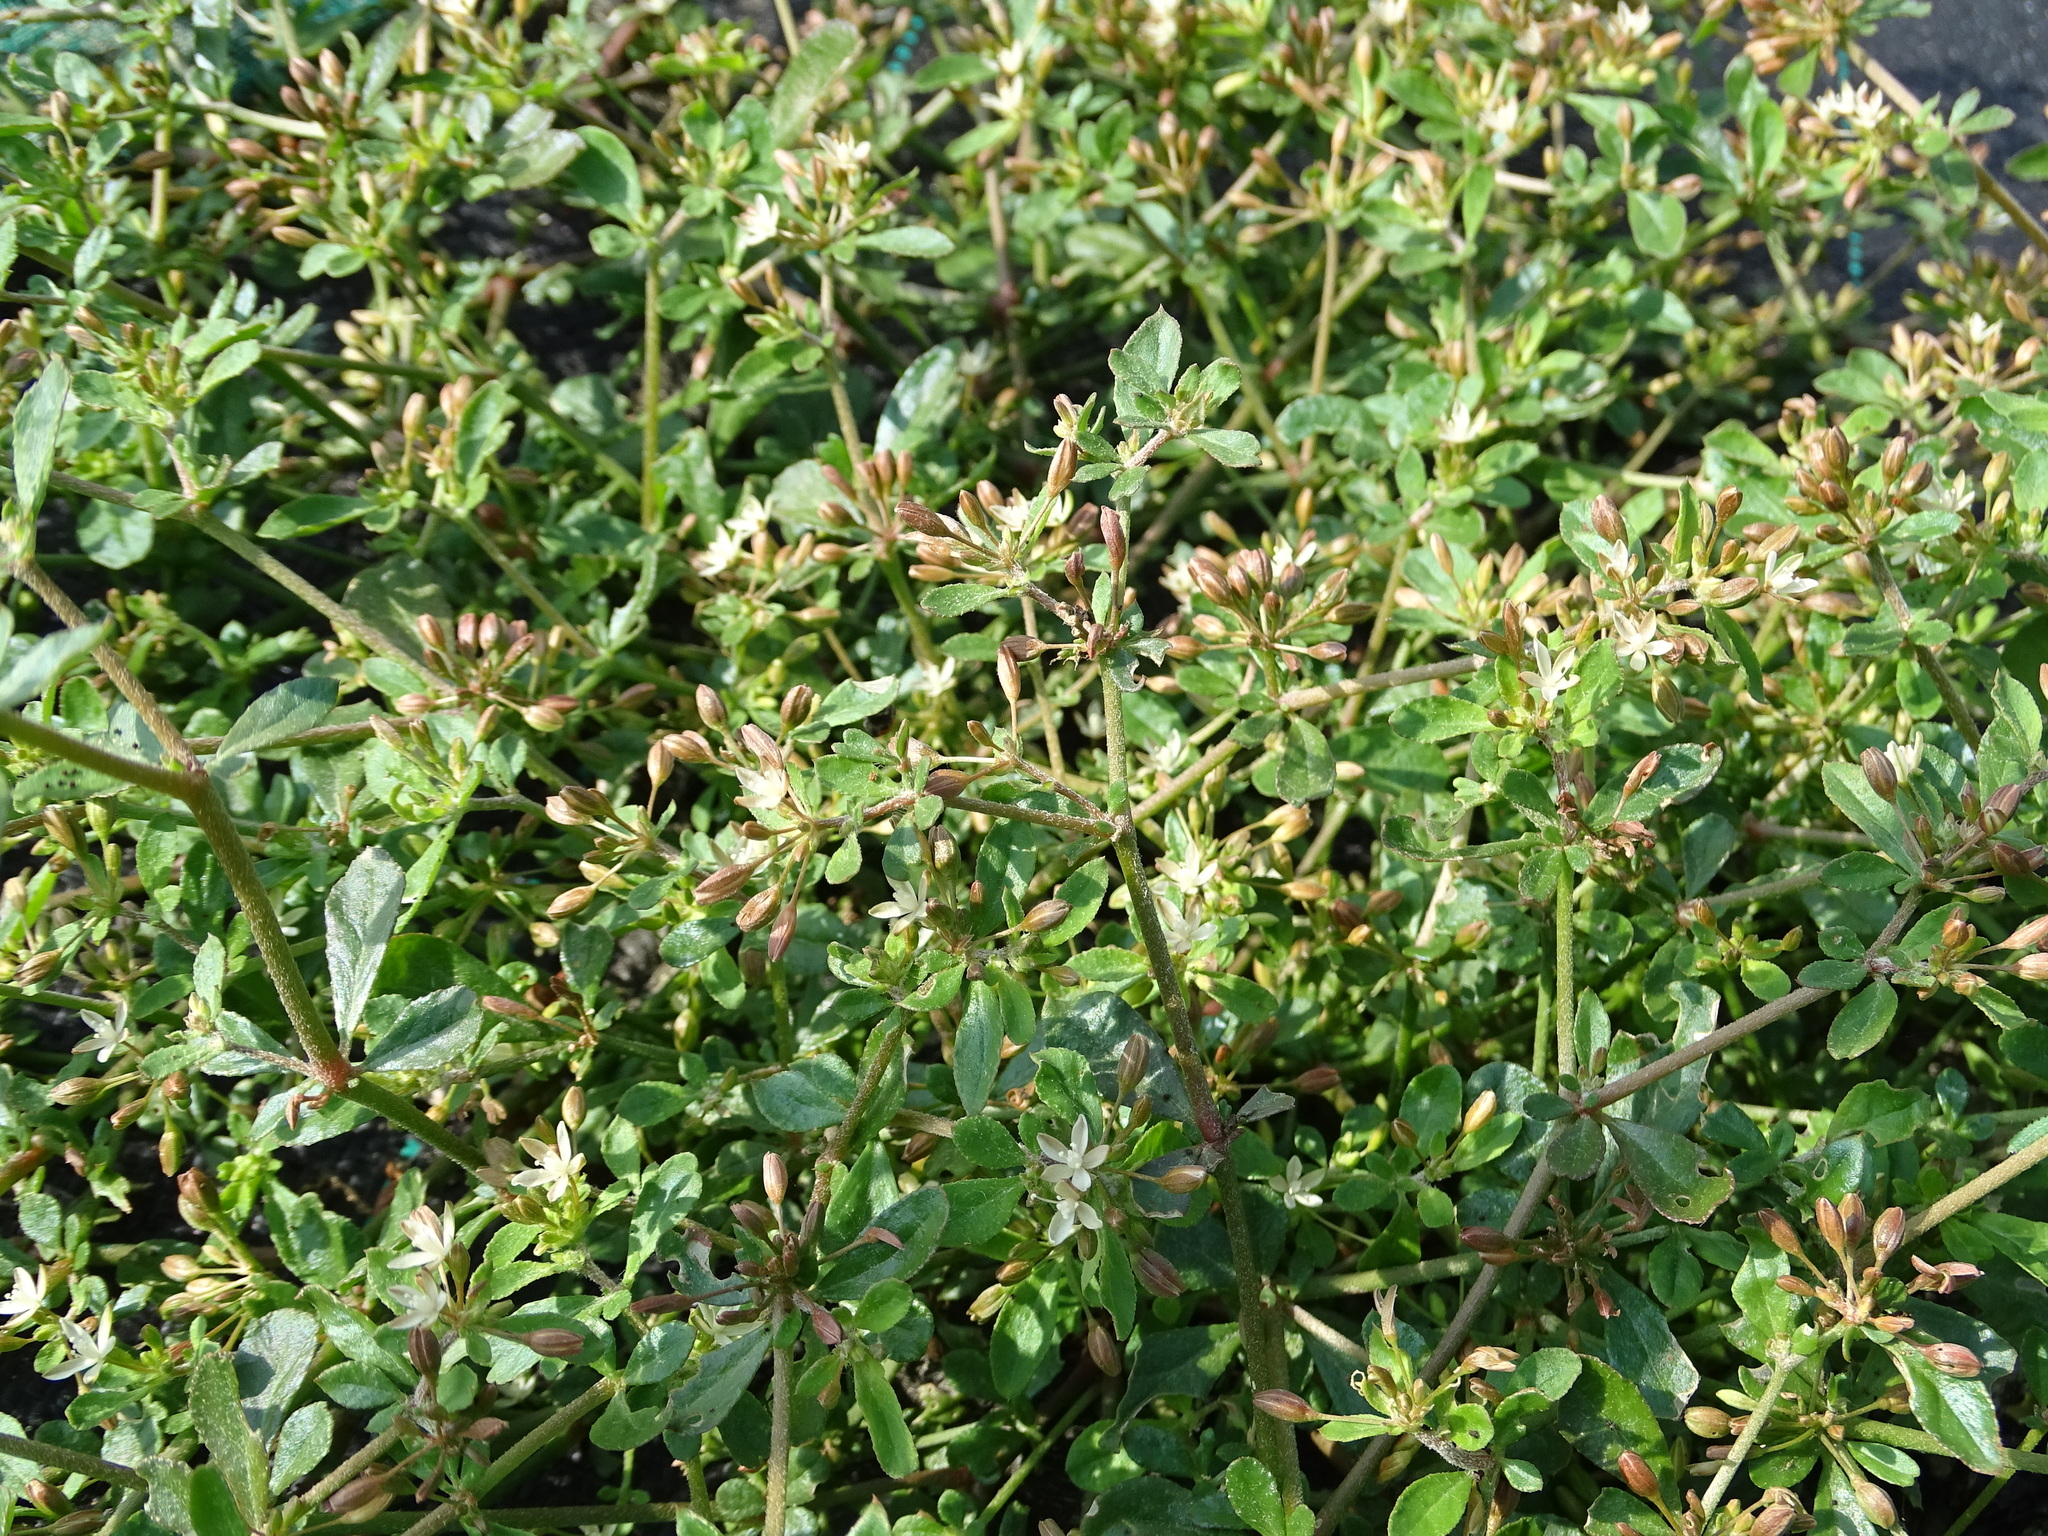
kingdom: Plantae
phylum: Tracheophyta
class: Magnoliopsida
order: Caryophyllales
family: Molluginaceae
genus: Glinus
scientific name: Glinus oppositifolius
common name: Slender carpetweed
